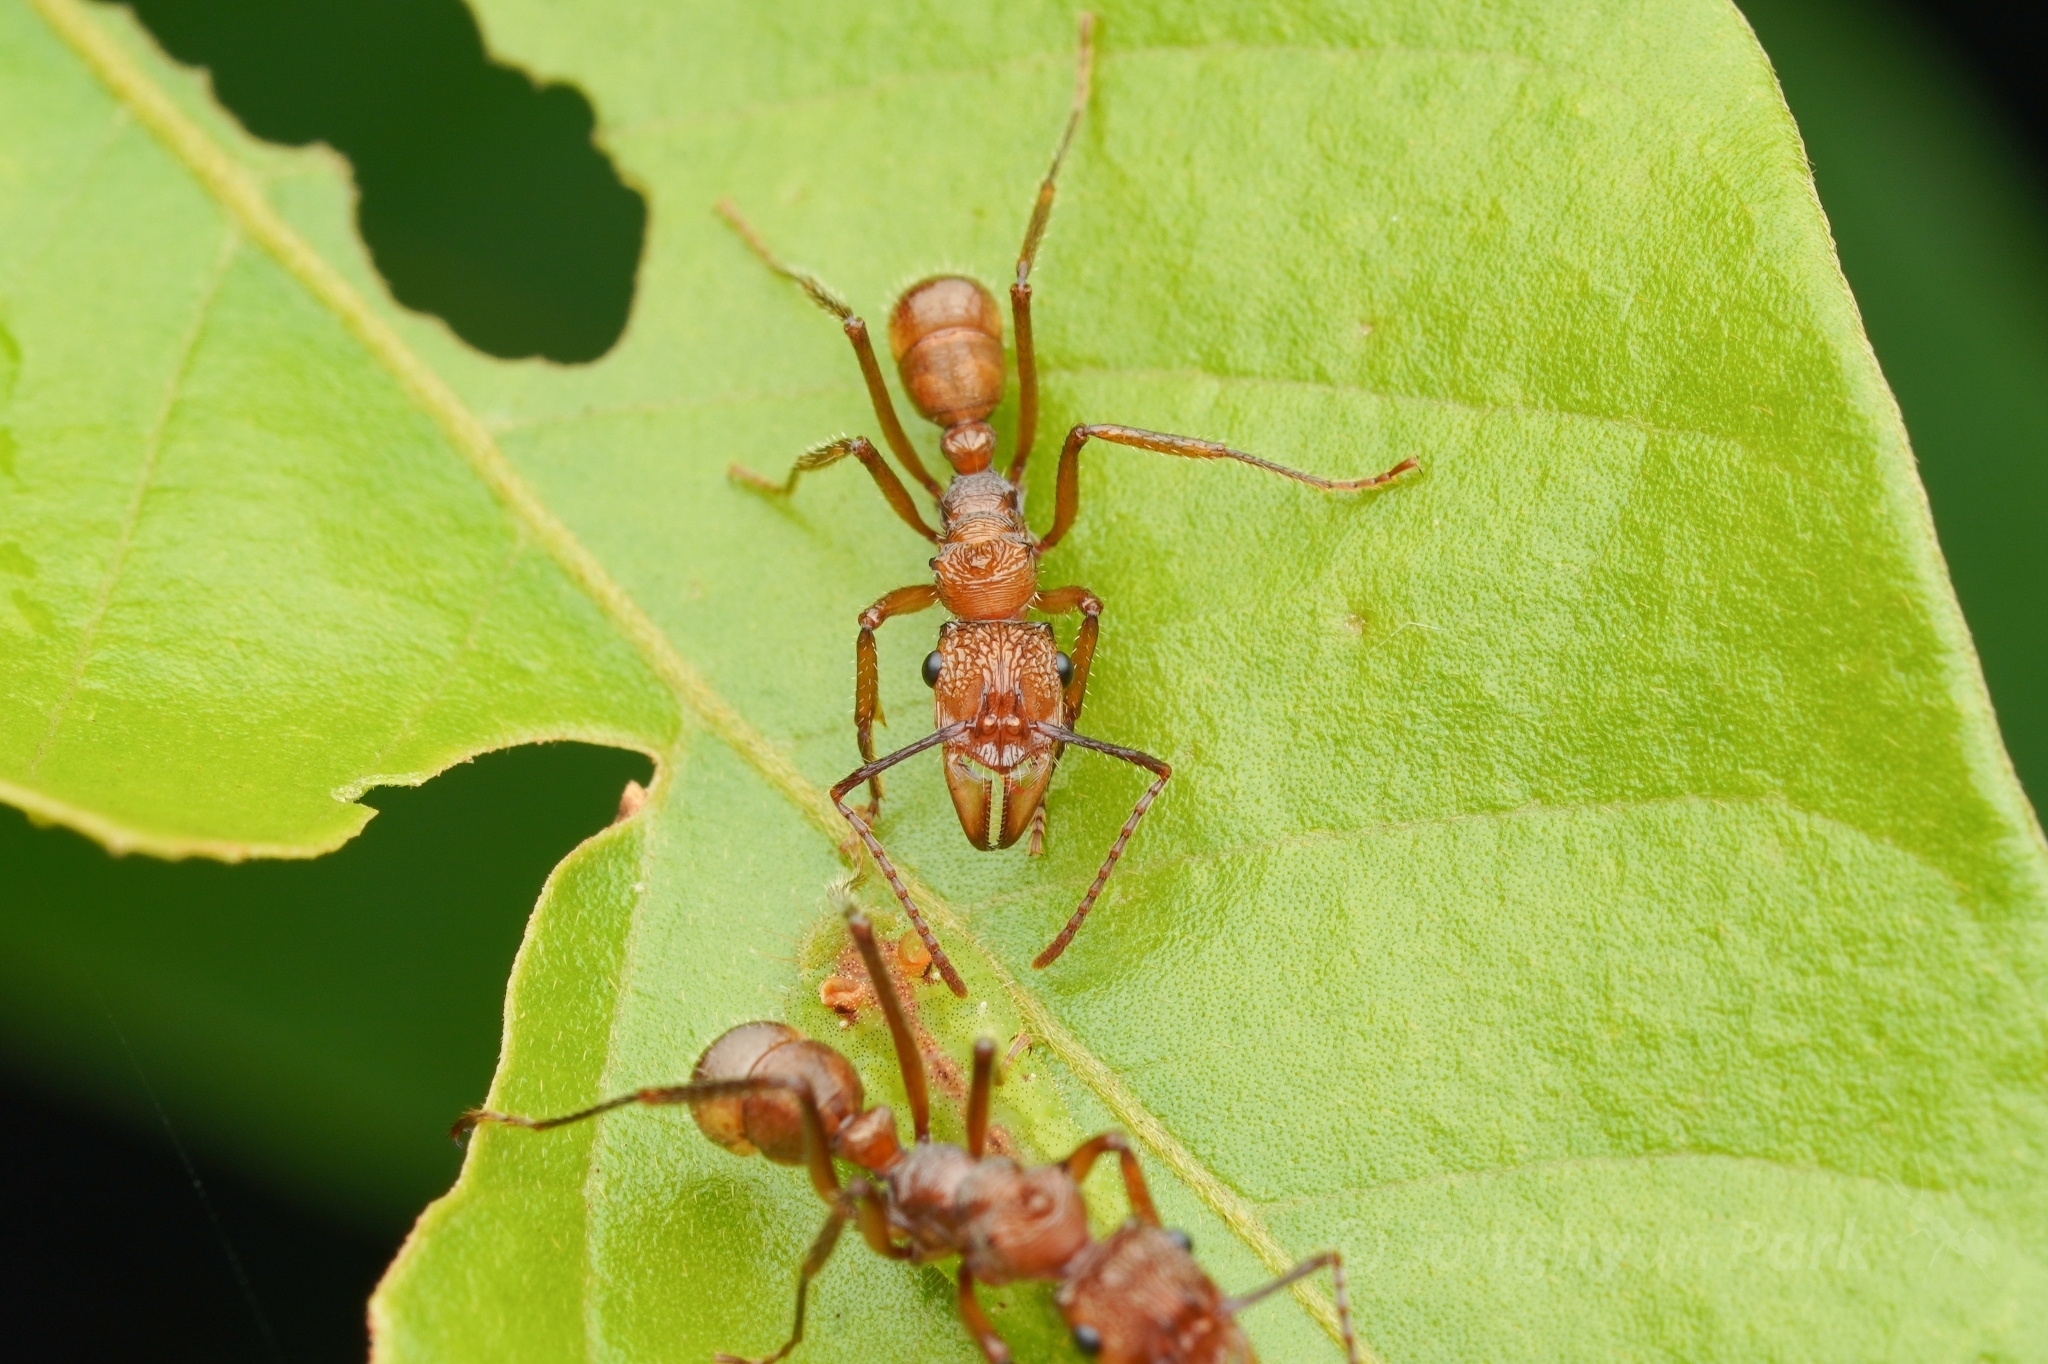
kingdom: Animalia
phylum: Arthropoda
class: Insecta
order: Hymenoptera
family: Formicidae
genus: Ectatomma
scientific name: Ectatomma tuberculatum
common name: Ant
